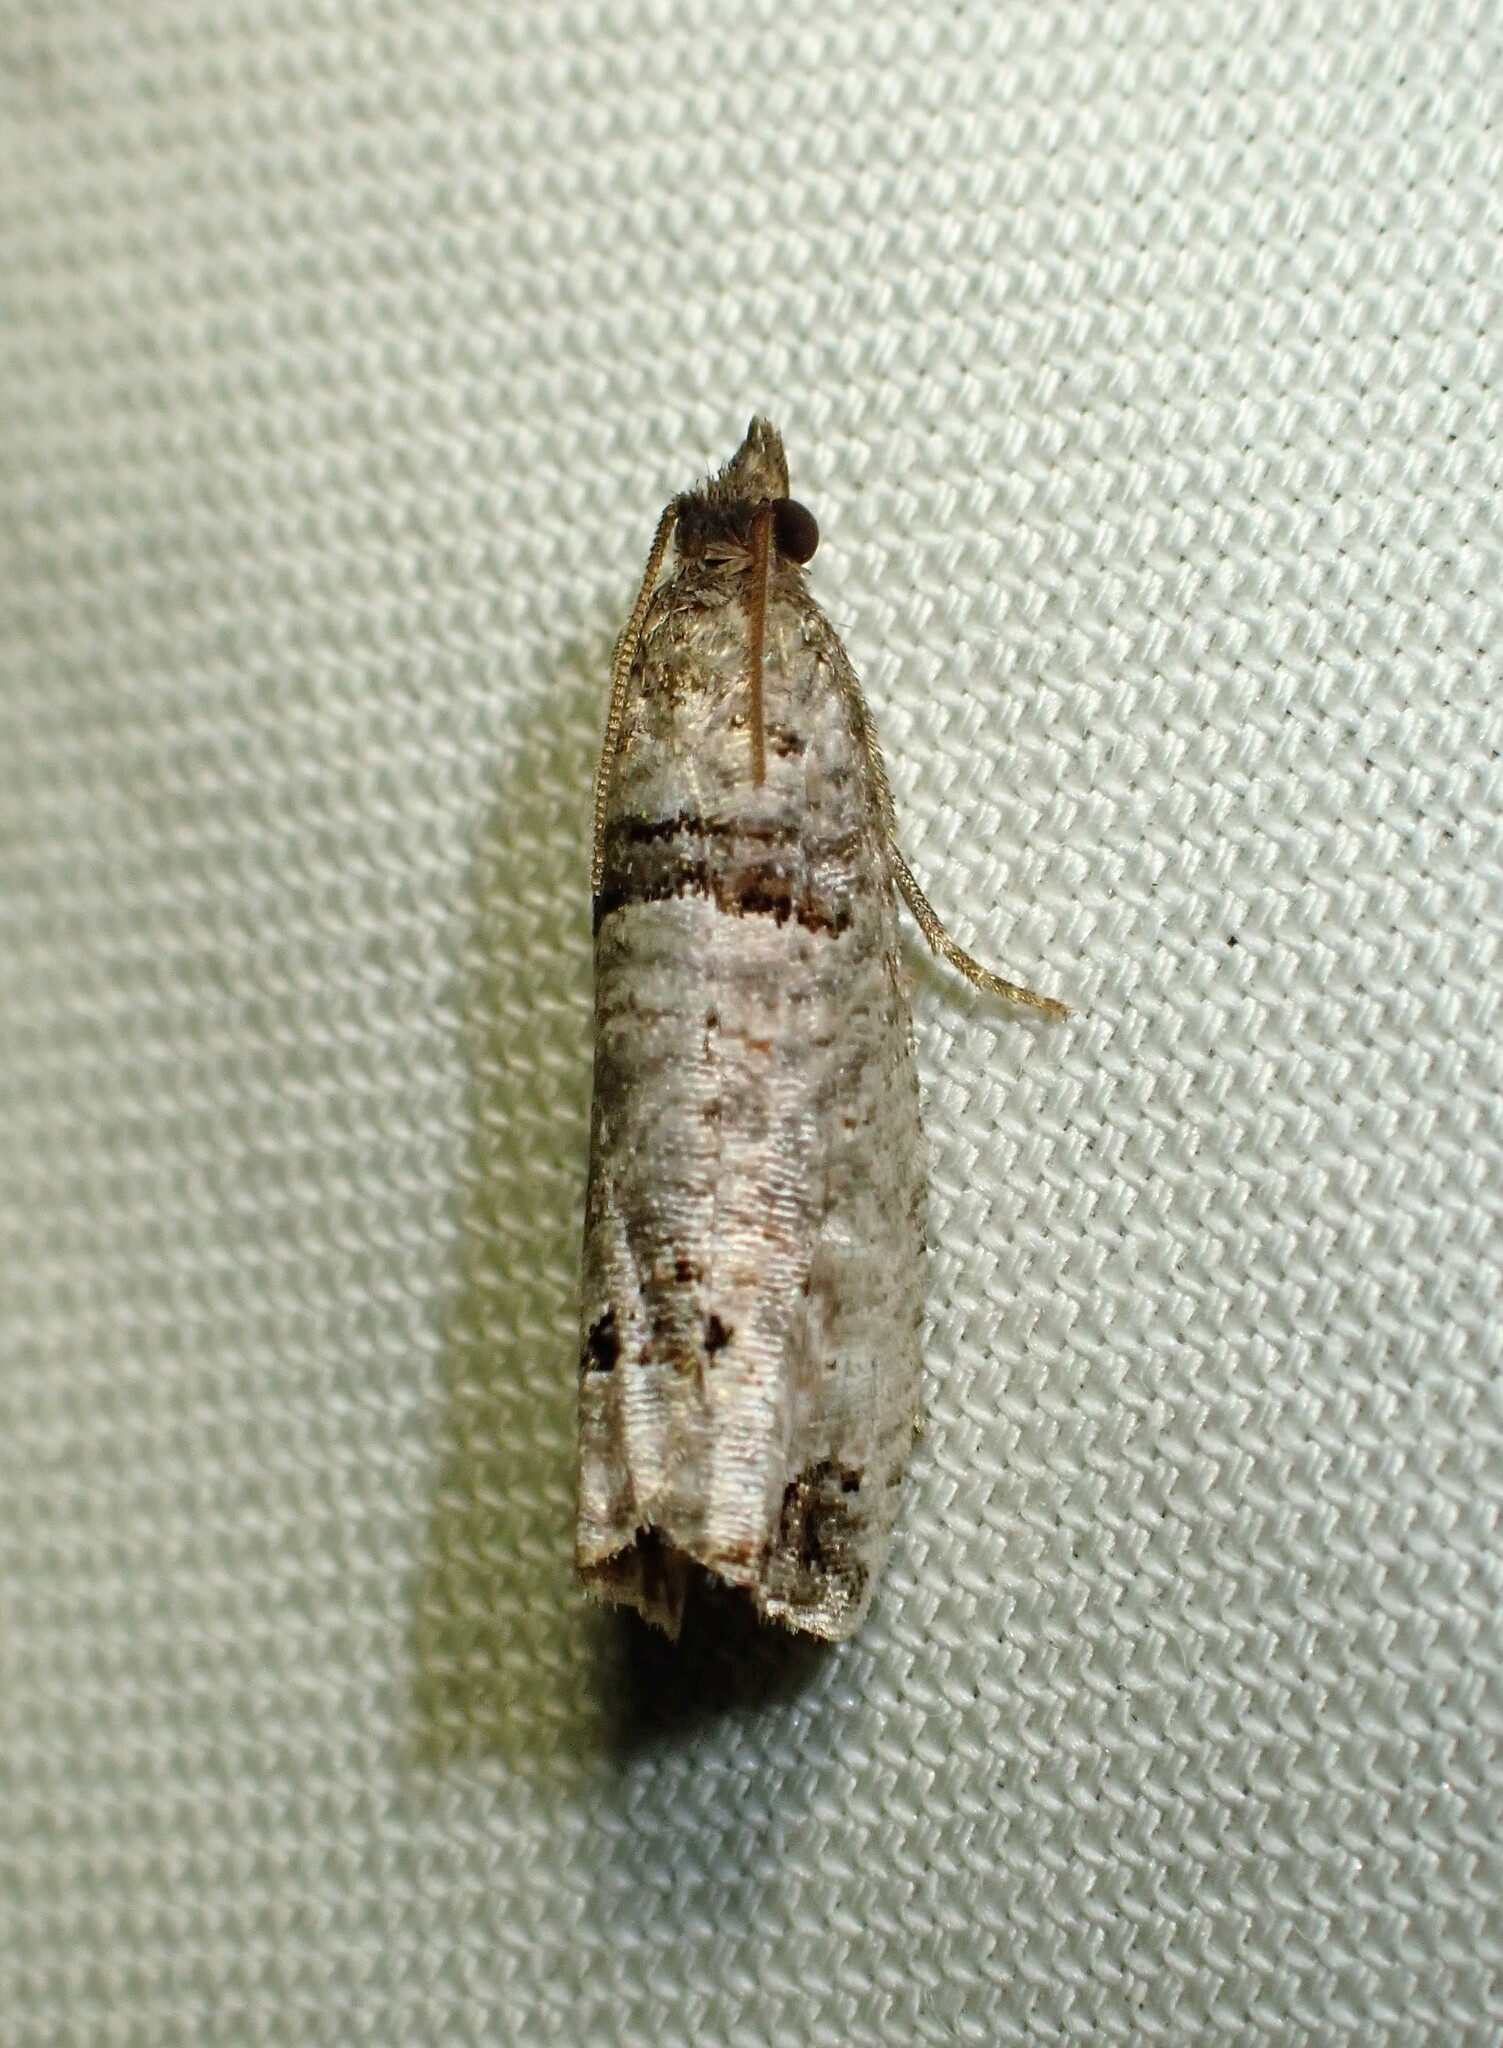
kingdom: Animalia
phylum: Arthropoda
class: Insecta
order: Lepidoptera
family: Tortricidae
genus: Notocelia
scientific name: Notocelia culminana
